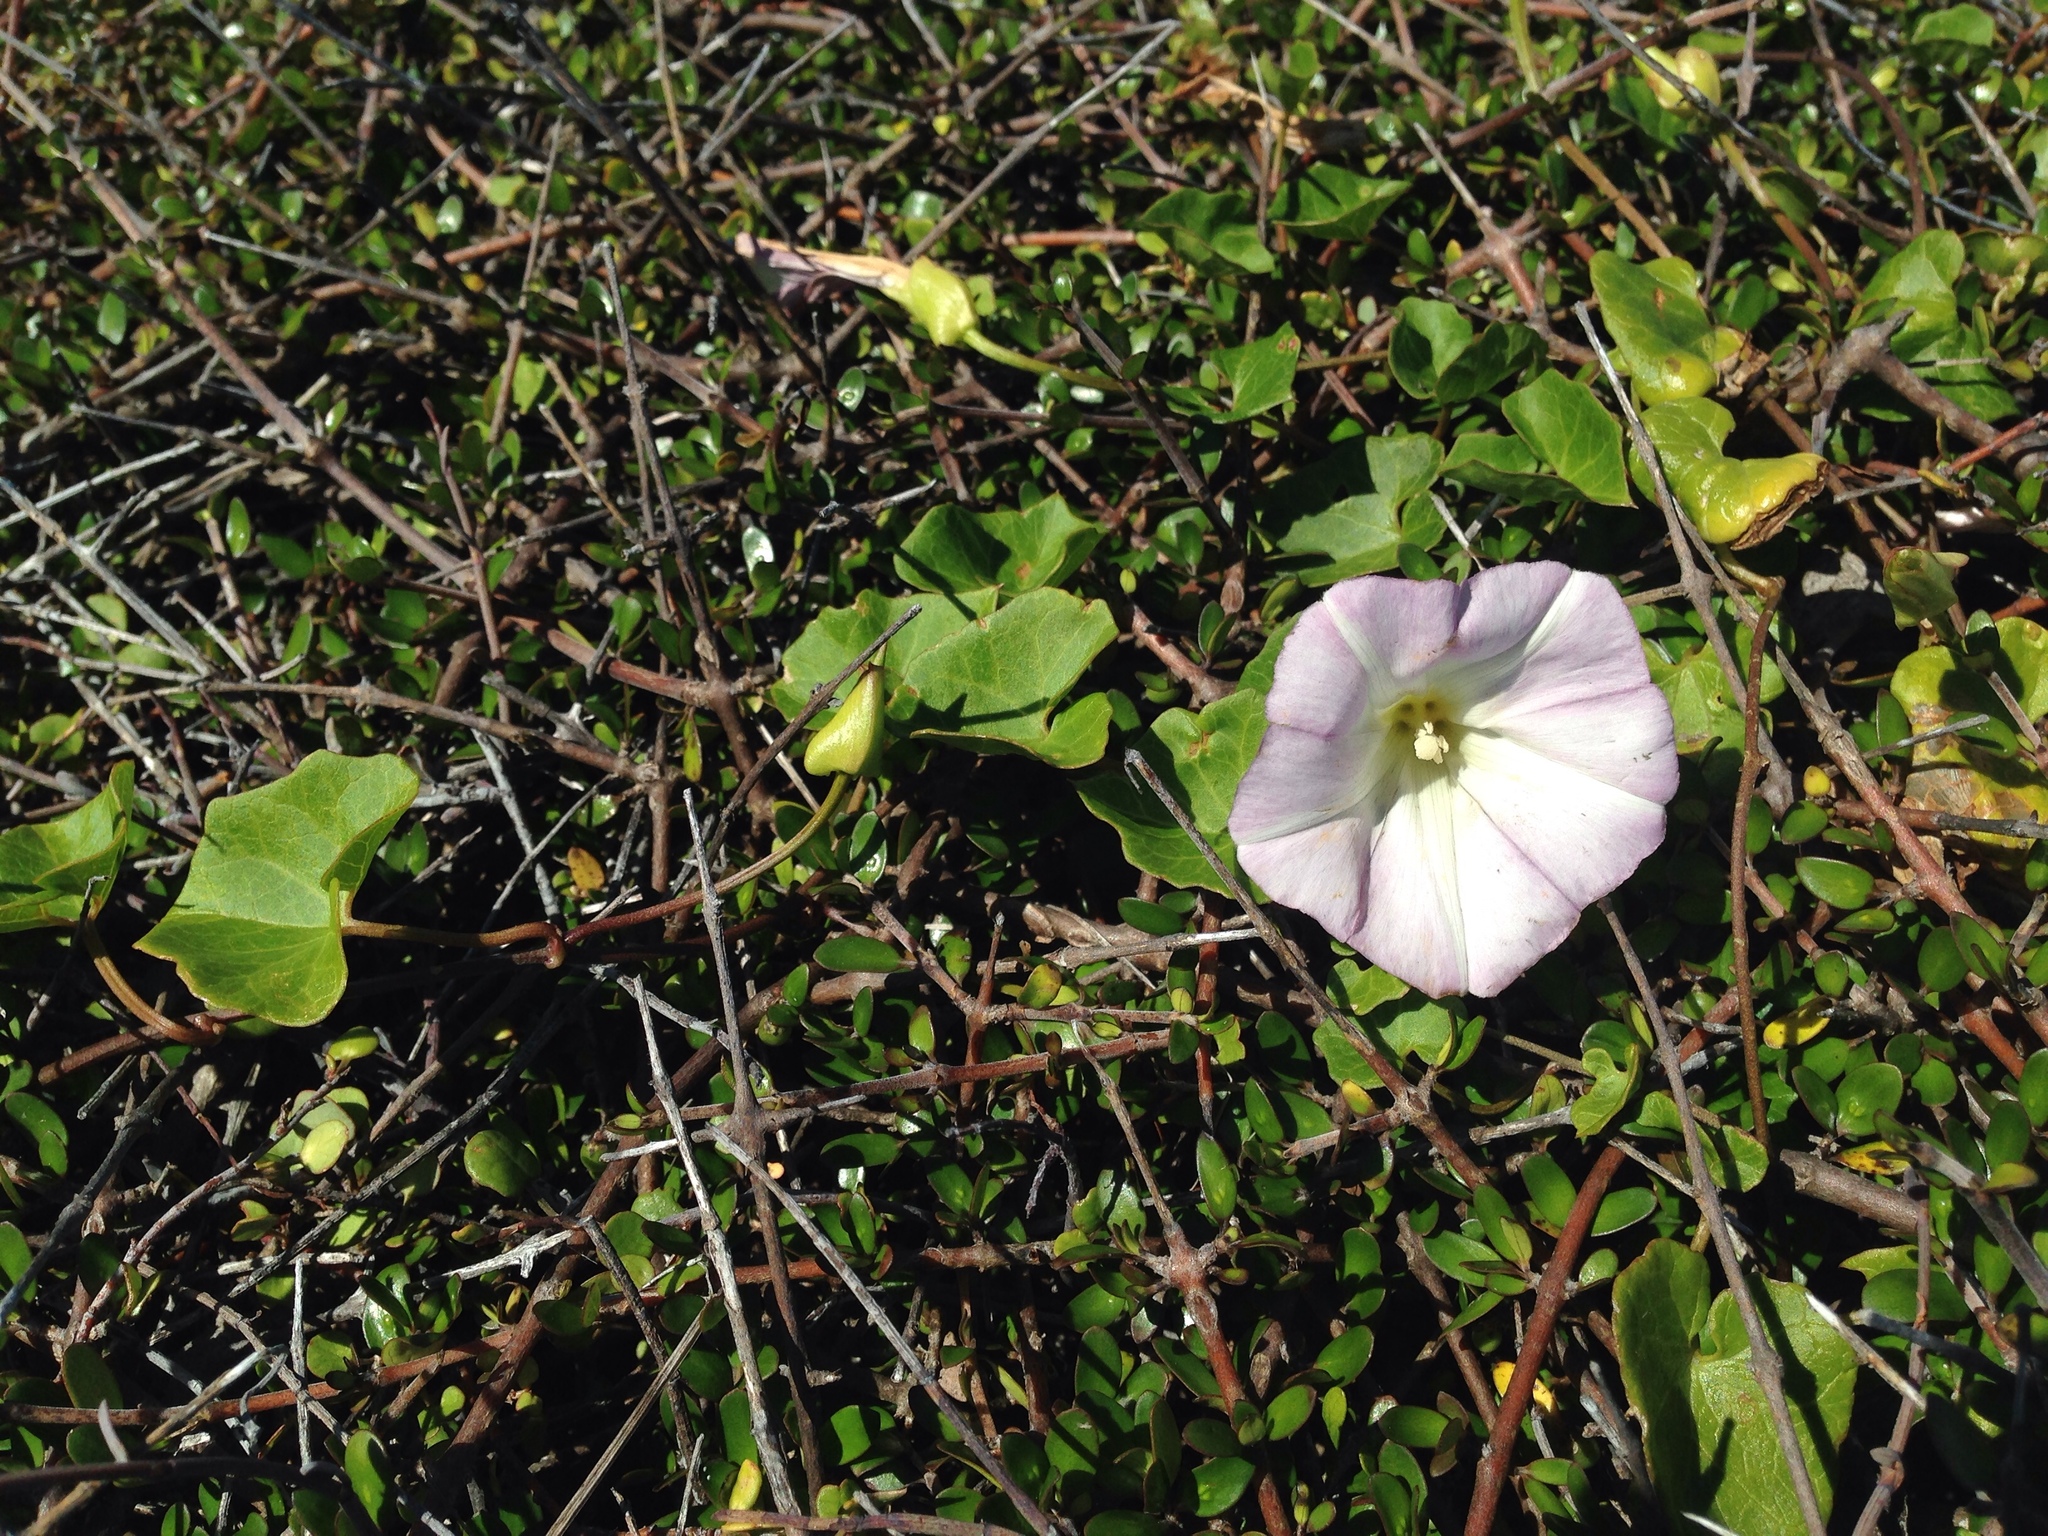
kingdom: Plantae
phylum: Tracheophyta
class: Magnoliopsida
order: Solanales
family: Convolvulaceae
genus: Calystegia
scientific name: Calystegia soldanella
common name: Sea bindweed
